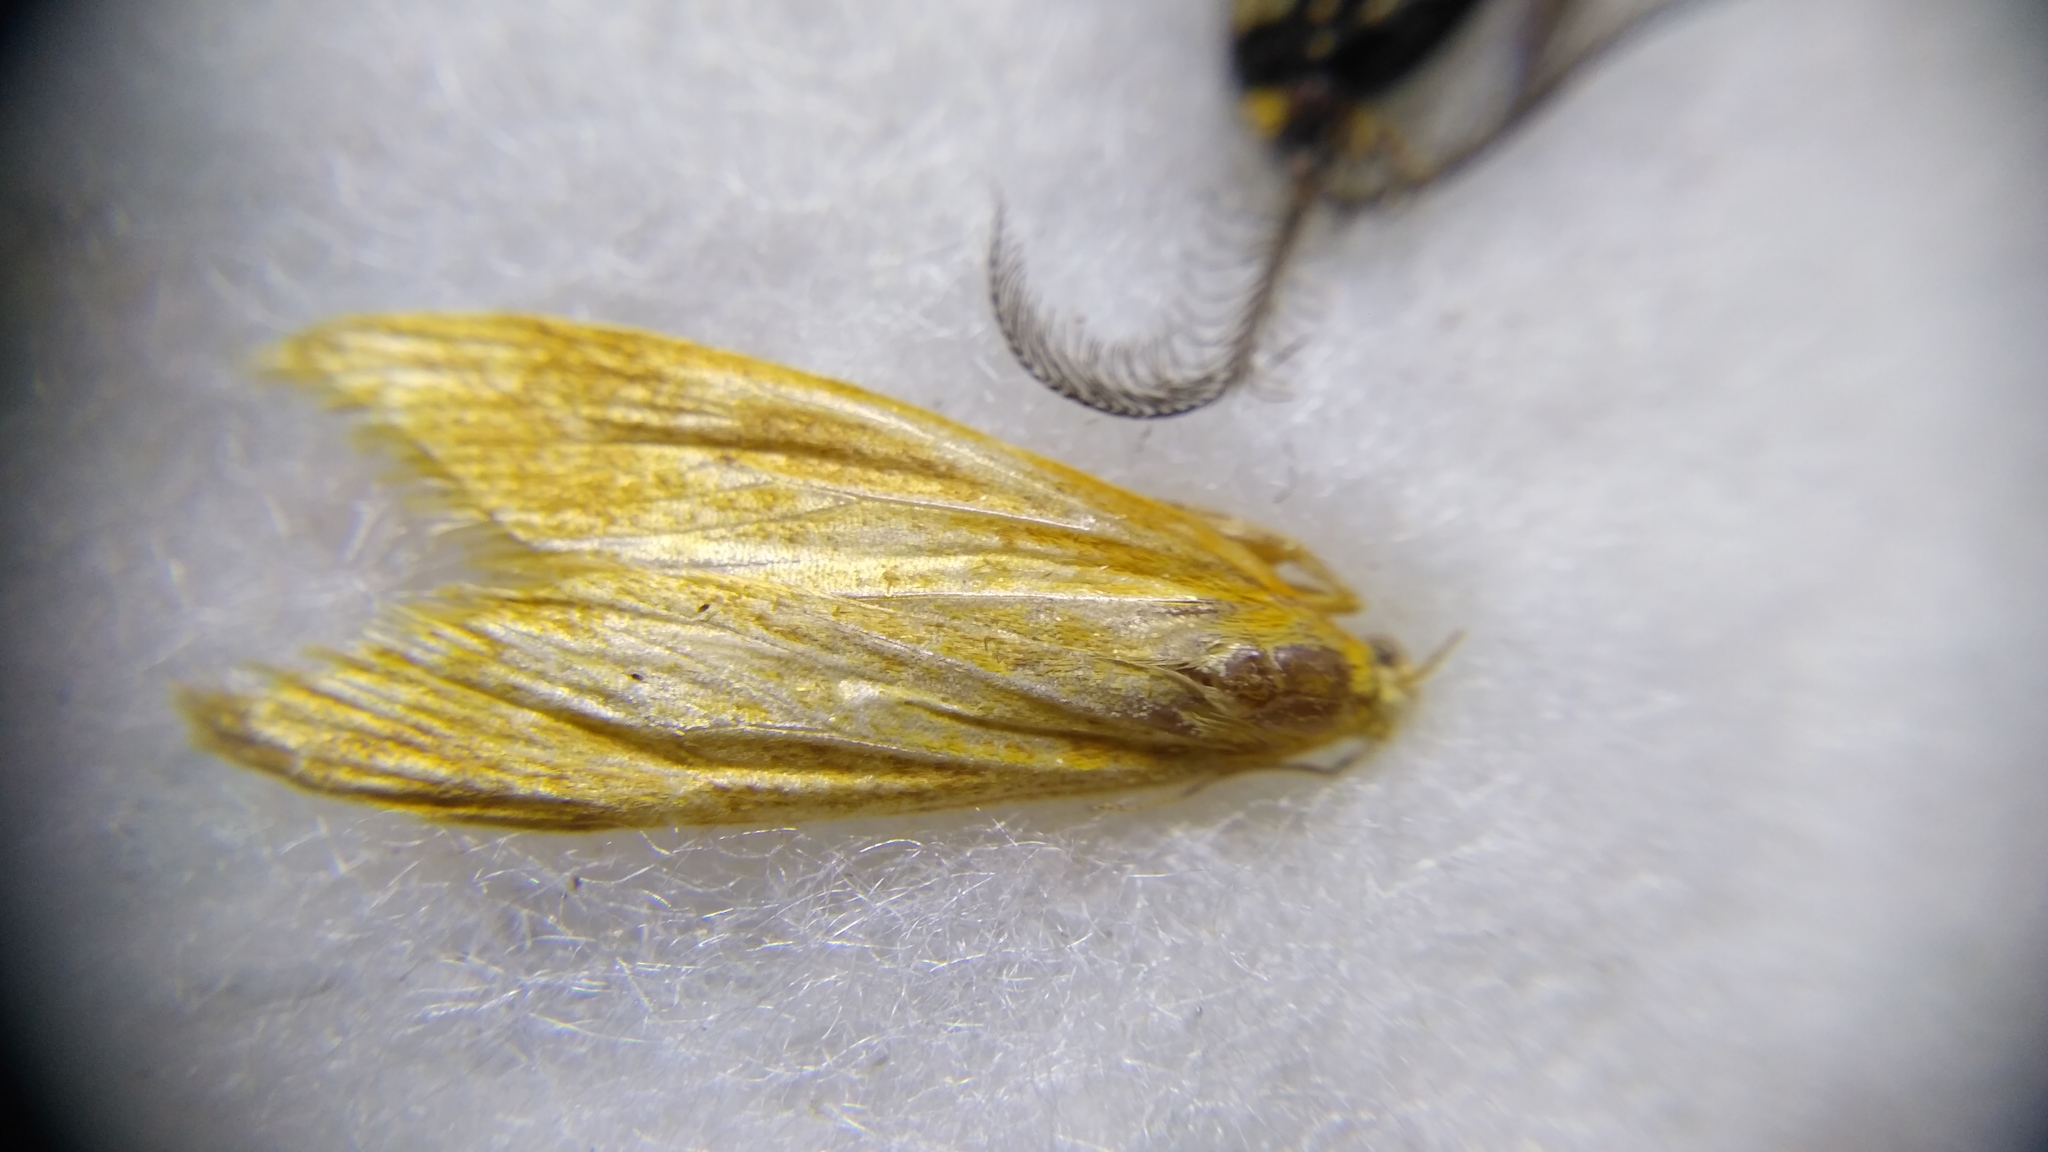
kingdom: Animalia
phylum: Arthropoda
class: Insecta
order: Lepidoptera
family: Crambidae
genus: Donacaula
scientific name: Donacaula forficella
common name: Pale water-veneer
